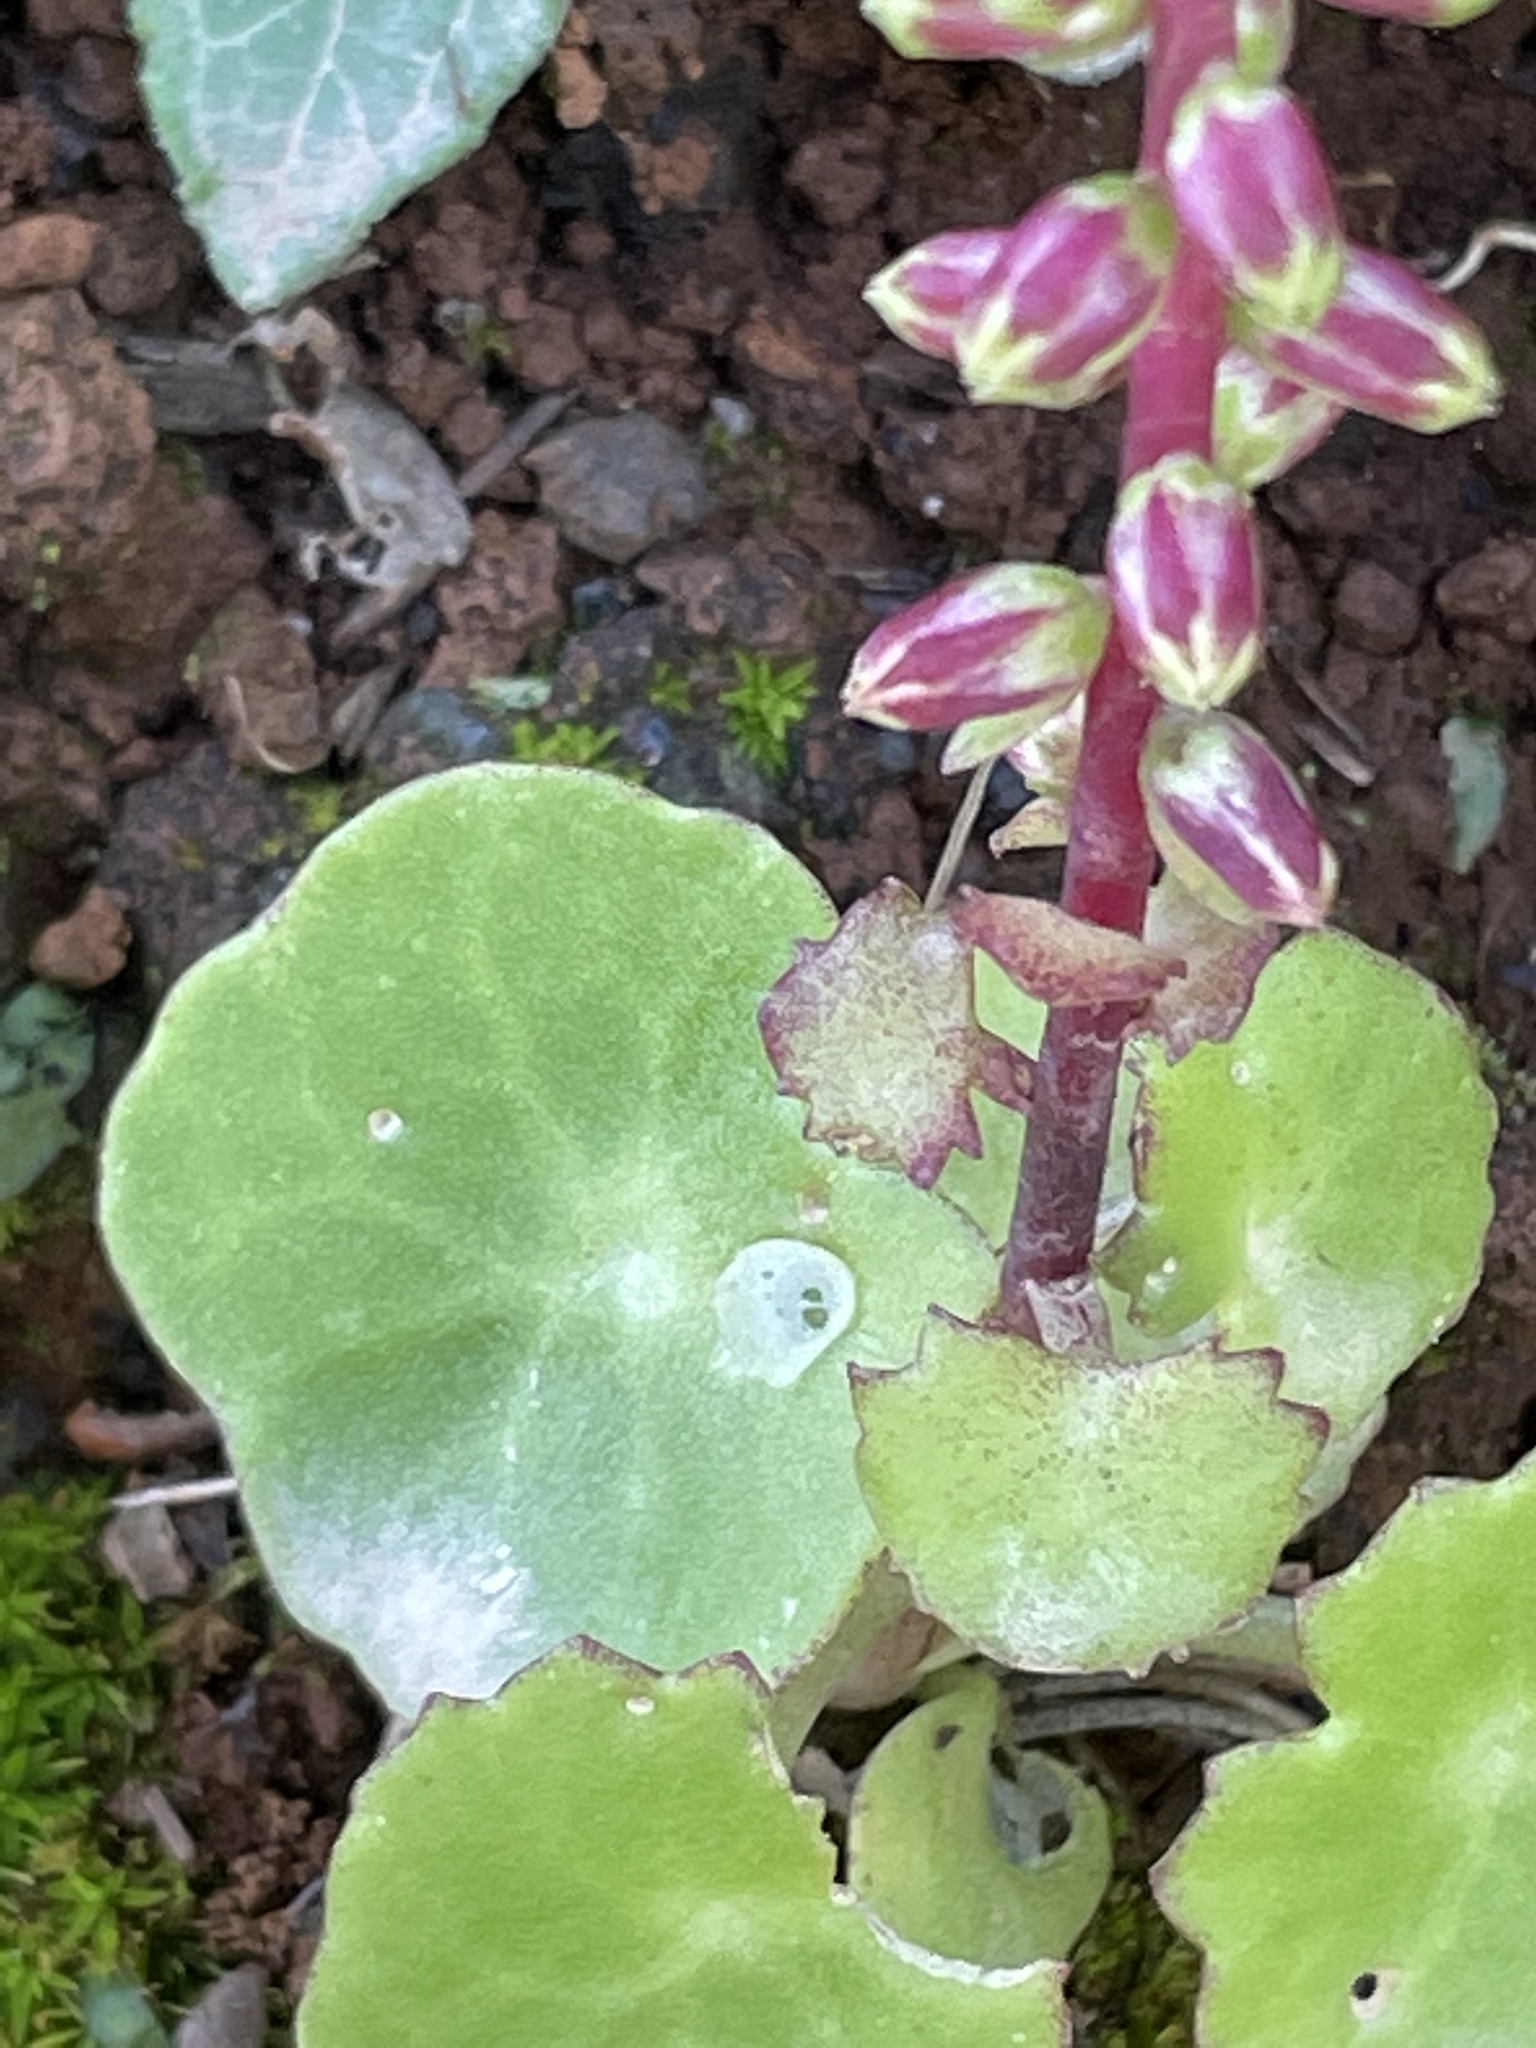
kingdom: Plantae
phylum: Tracheophyta
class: Magnoliopsida
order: Saxifragales
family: Crassulaceae
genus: Umbilicus
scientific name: Umbilicus schmidtii
